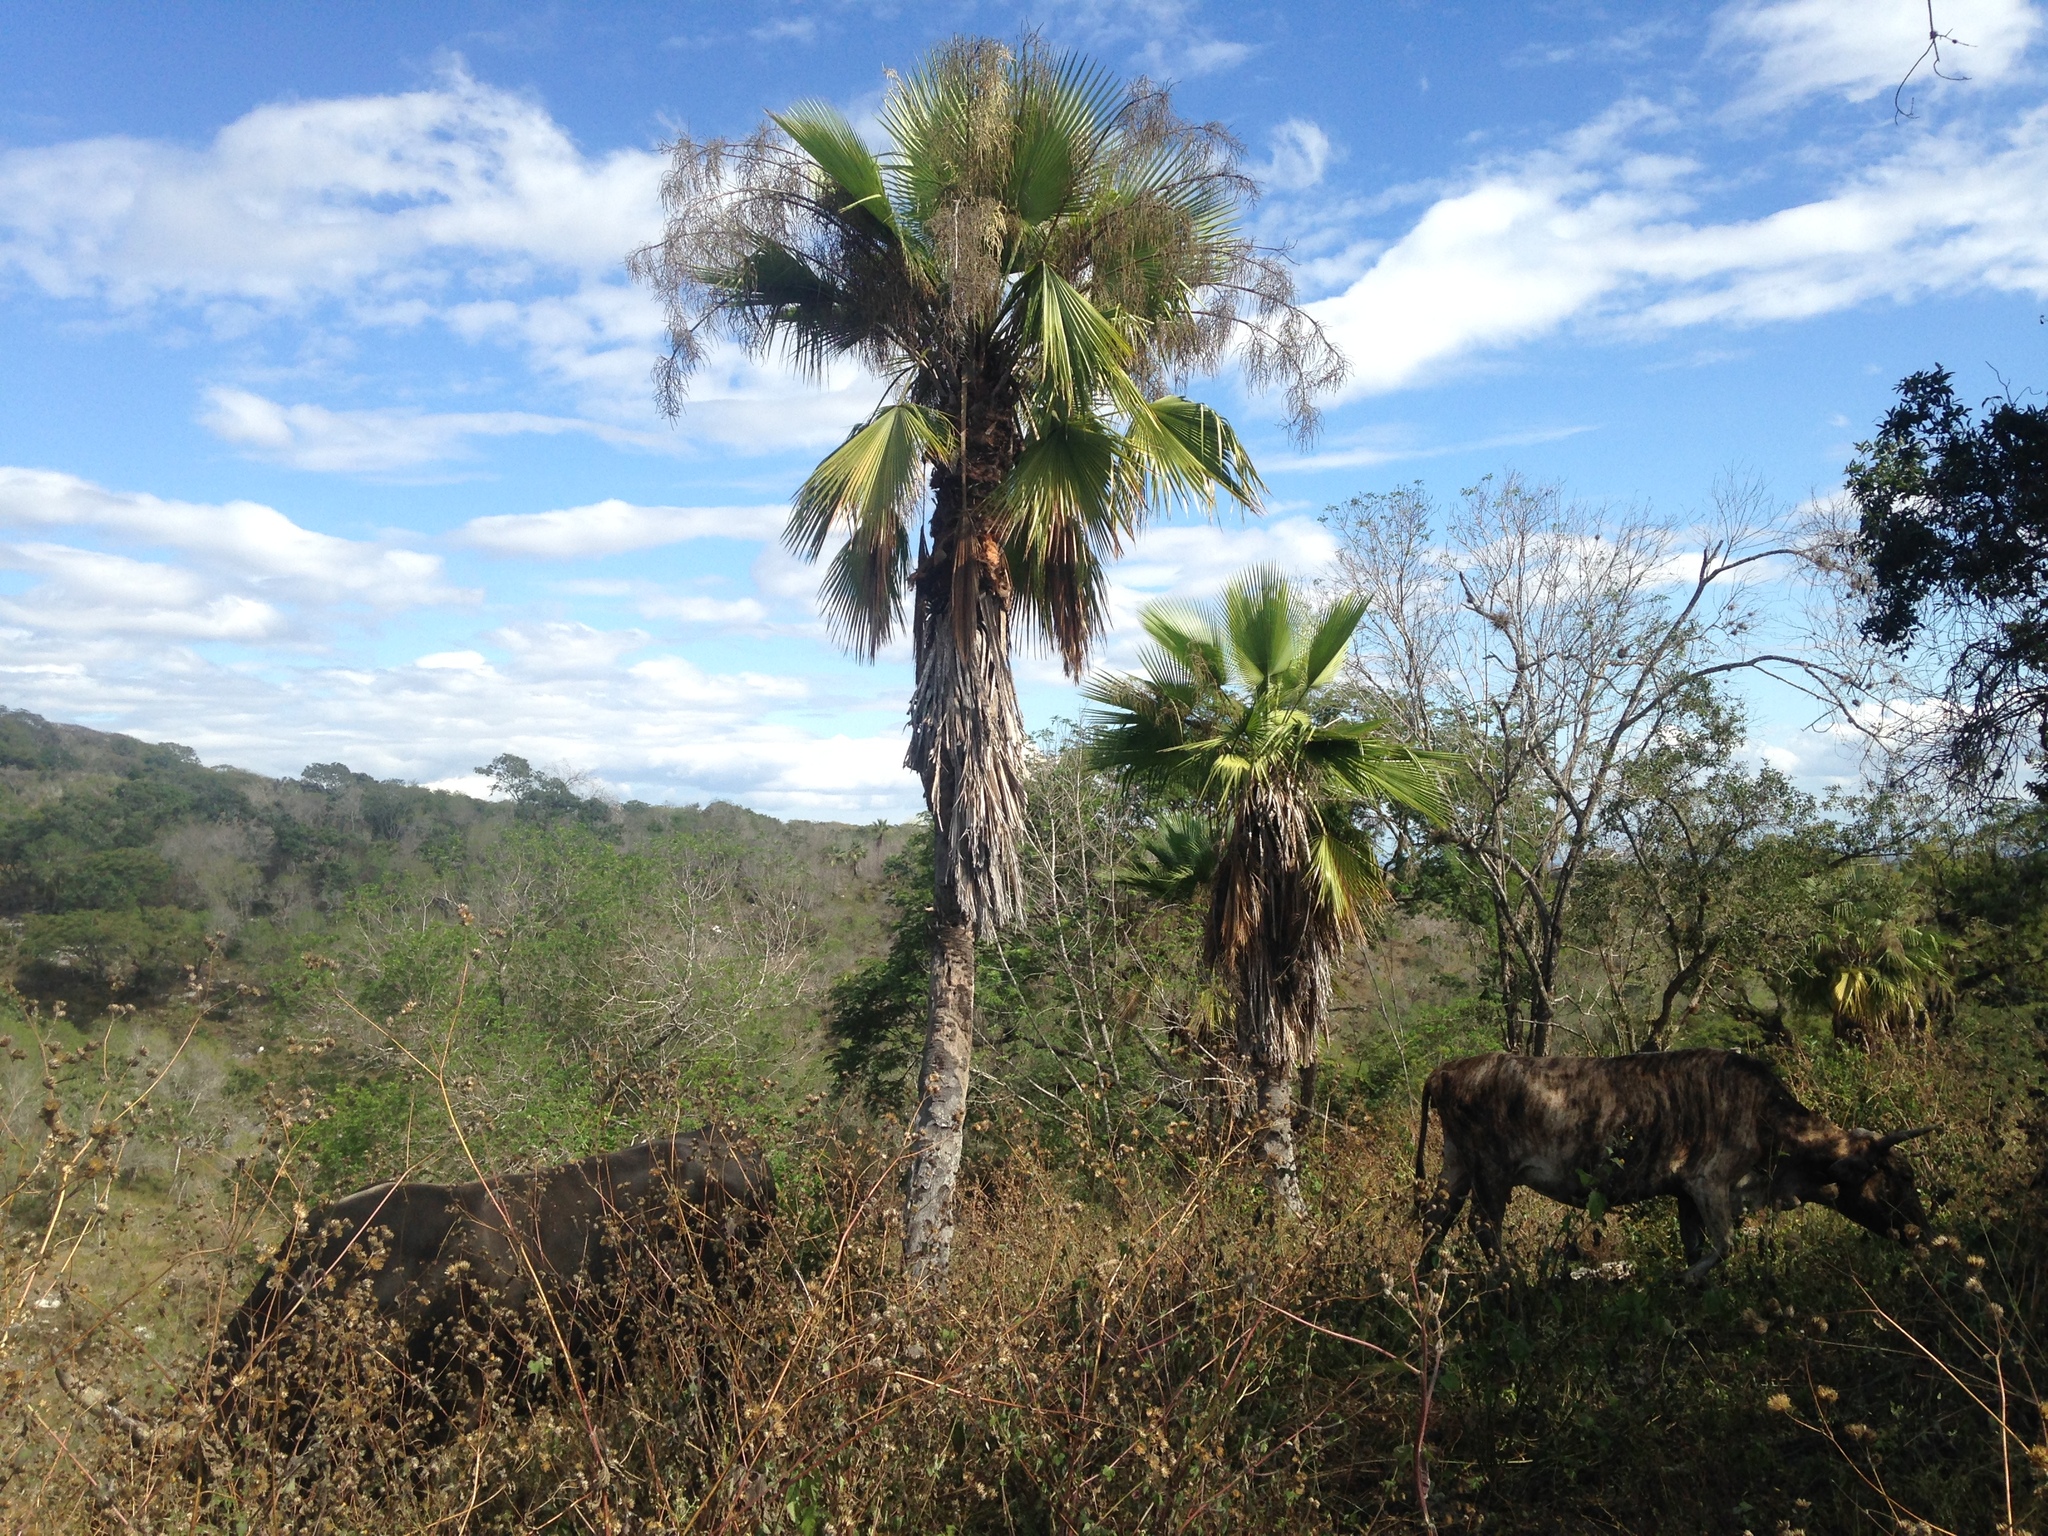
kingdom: Animalia
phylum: Chordata
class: Mammalia
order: Artiodactyla
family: Bovidae
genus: Bos
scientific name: Bos taurus
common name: Domesticated cattle
